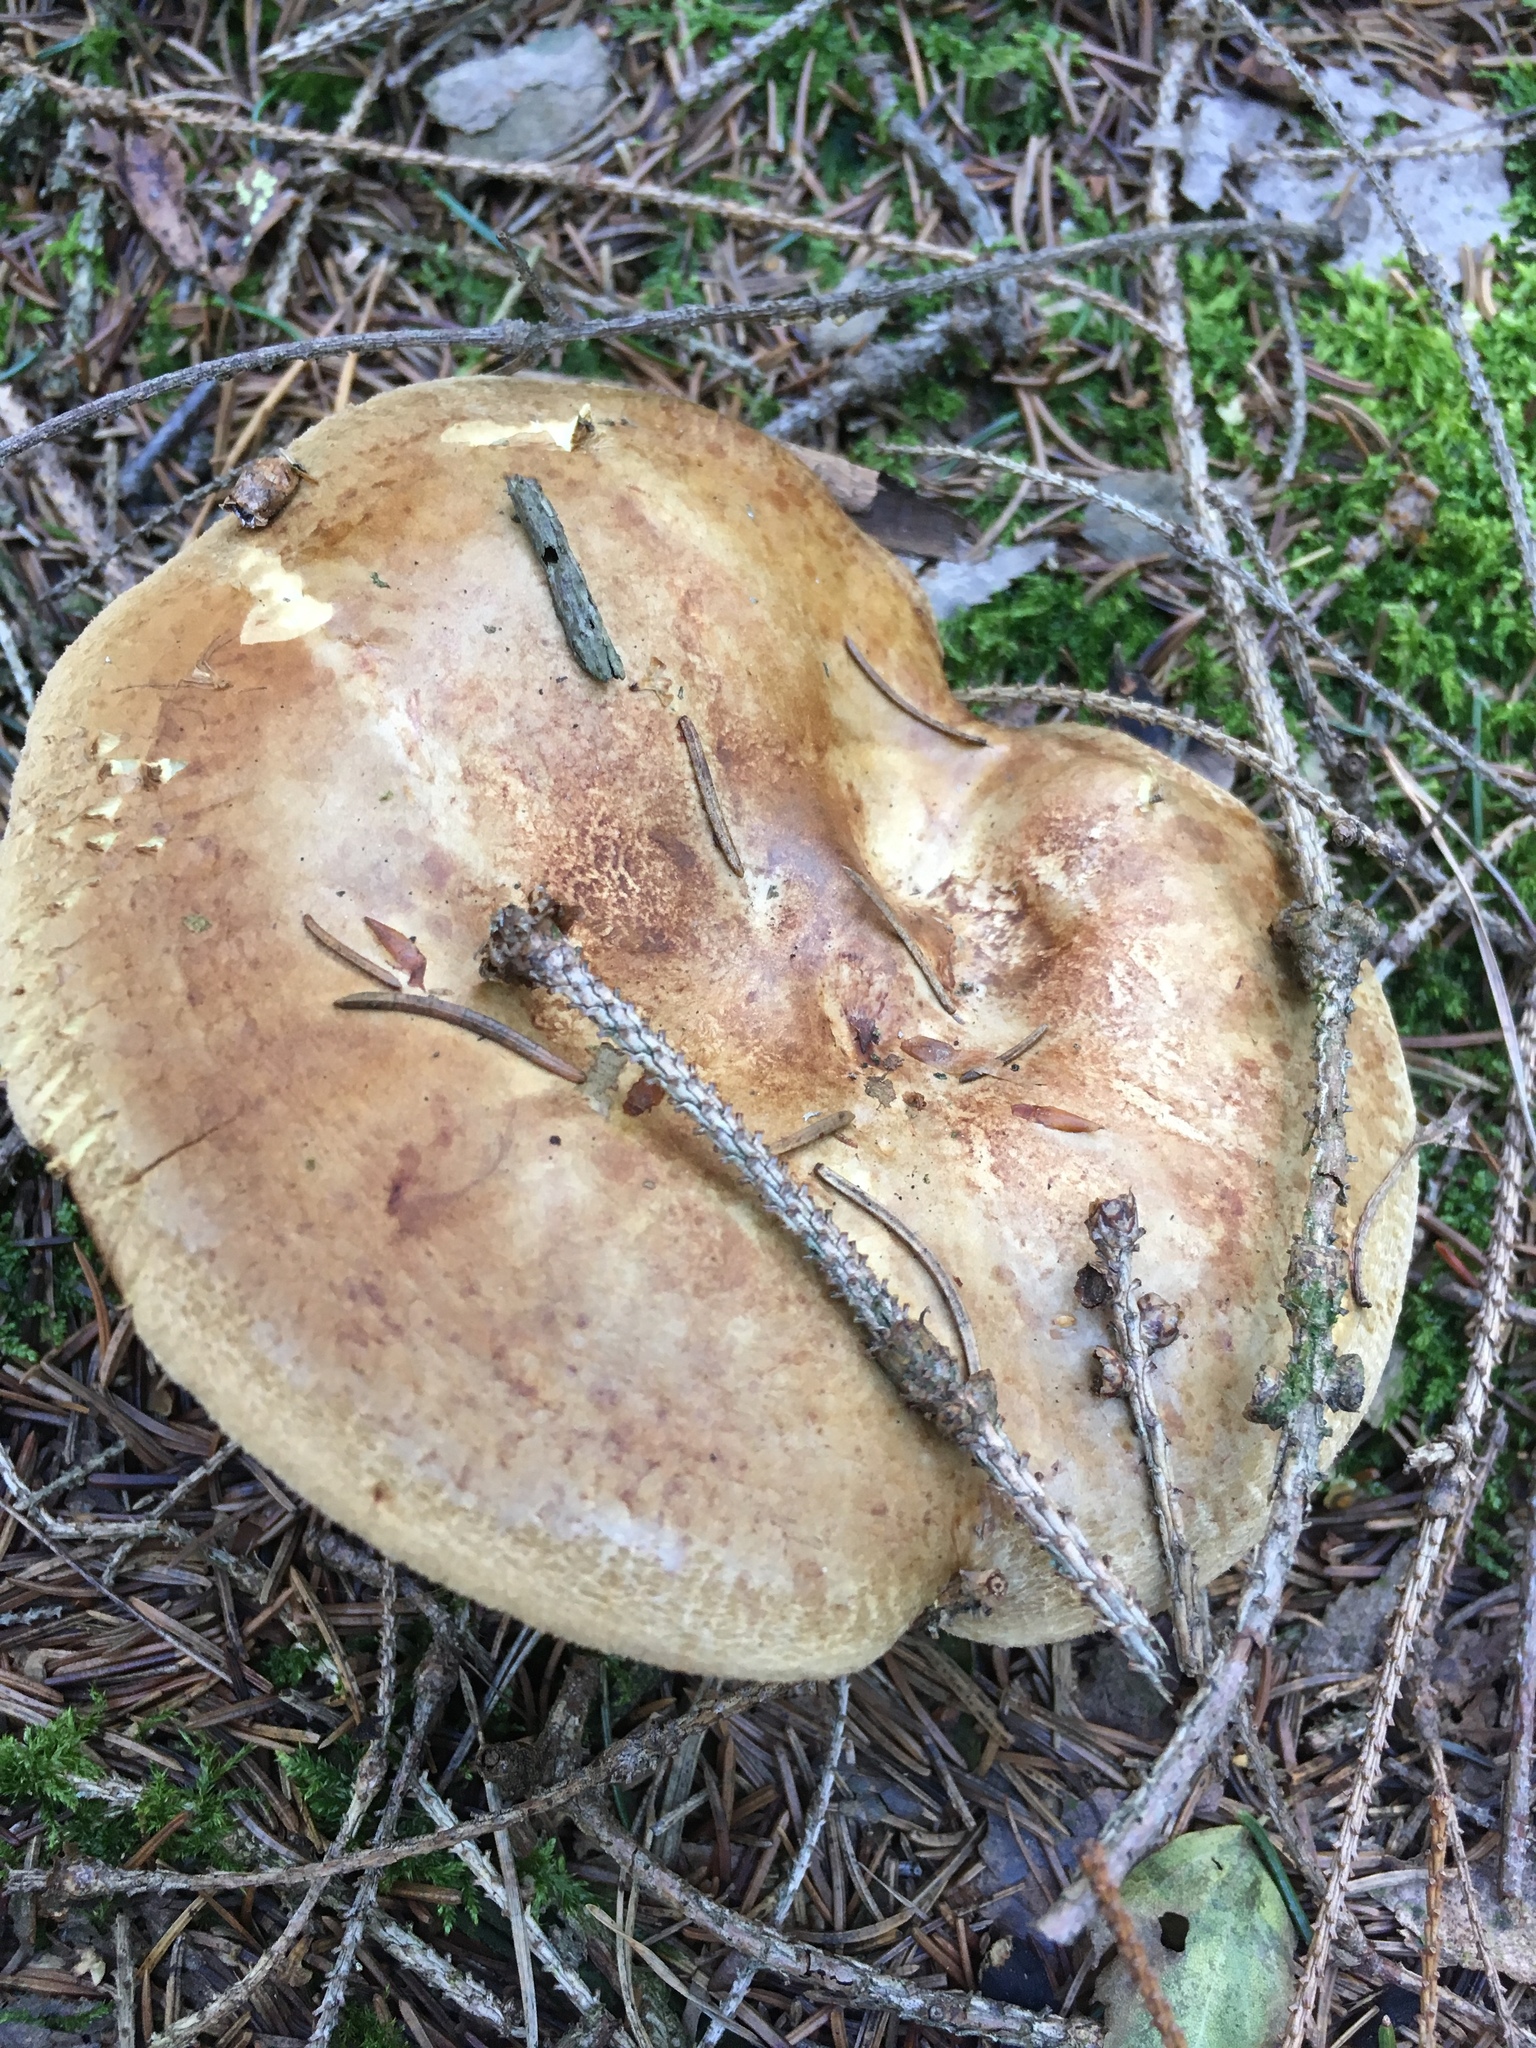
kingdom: Fungi
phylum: Basidiomycota
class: Agaricomycetes
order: Boletales
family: Paxillaceae
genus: Paxillus
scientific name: Paxillus involutus
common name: Brown roll rim
